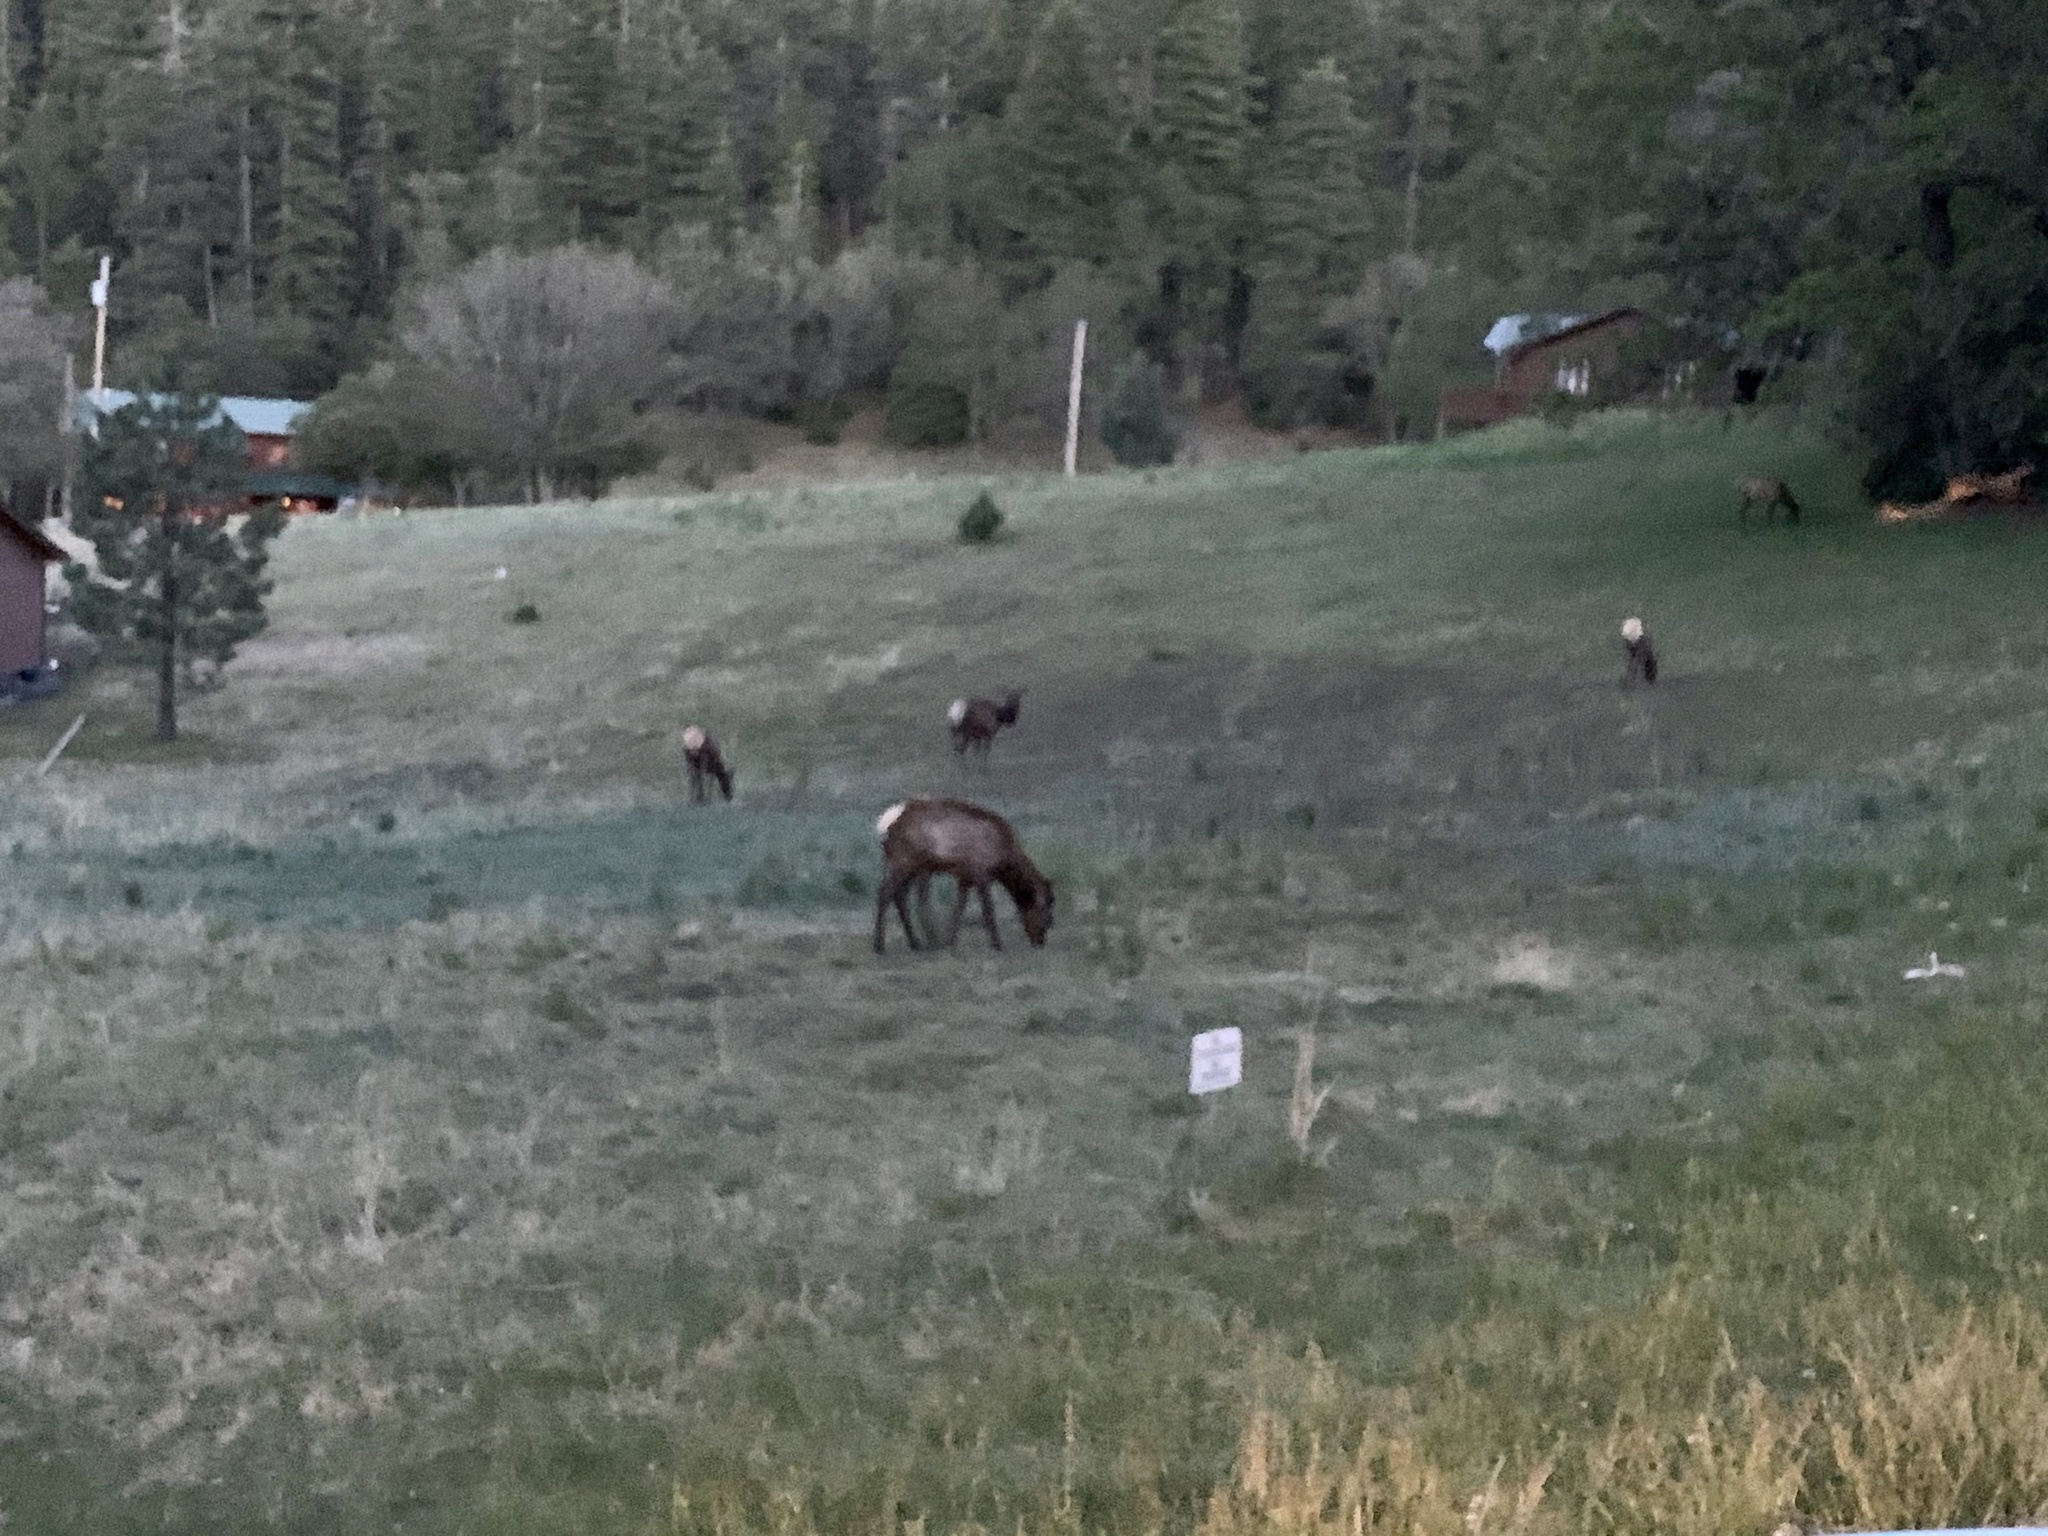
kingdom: Animalia
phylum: Chordata
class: Mammalia
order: Artiodactyla
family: Cervidae
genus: Cervus
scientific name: Cervus elaphus
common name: Red deer
